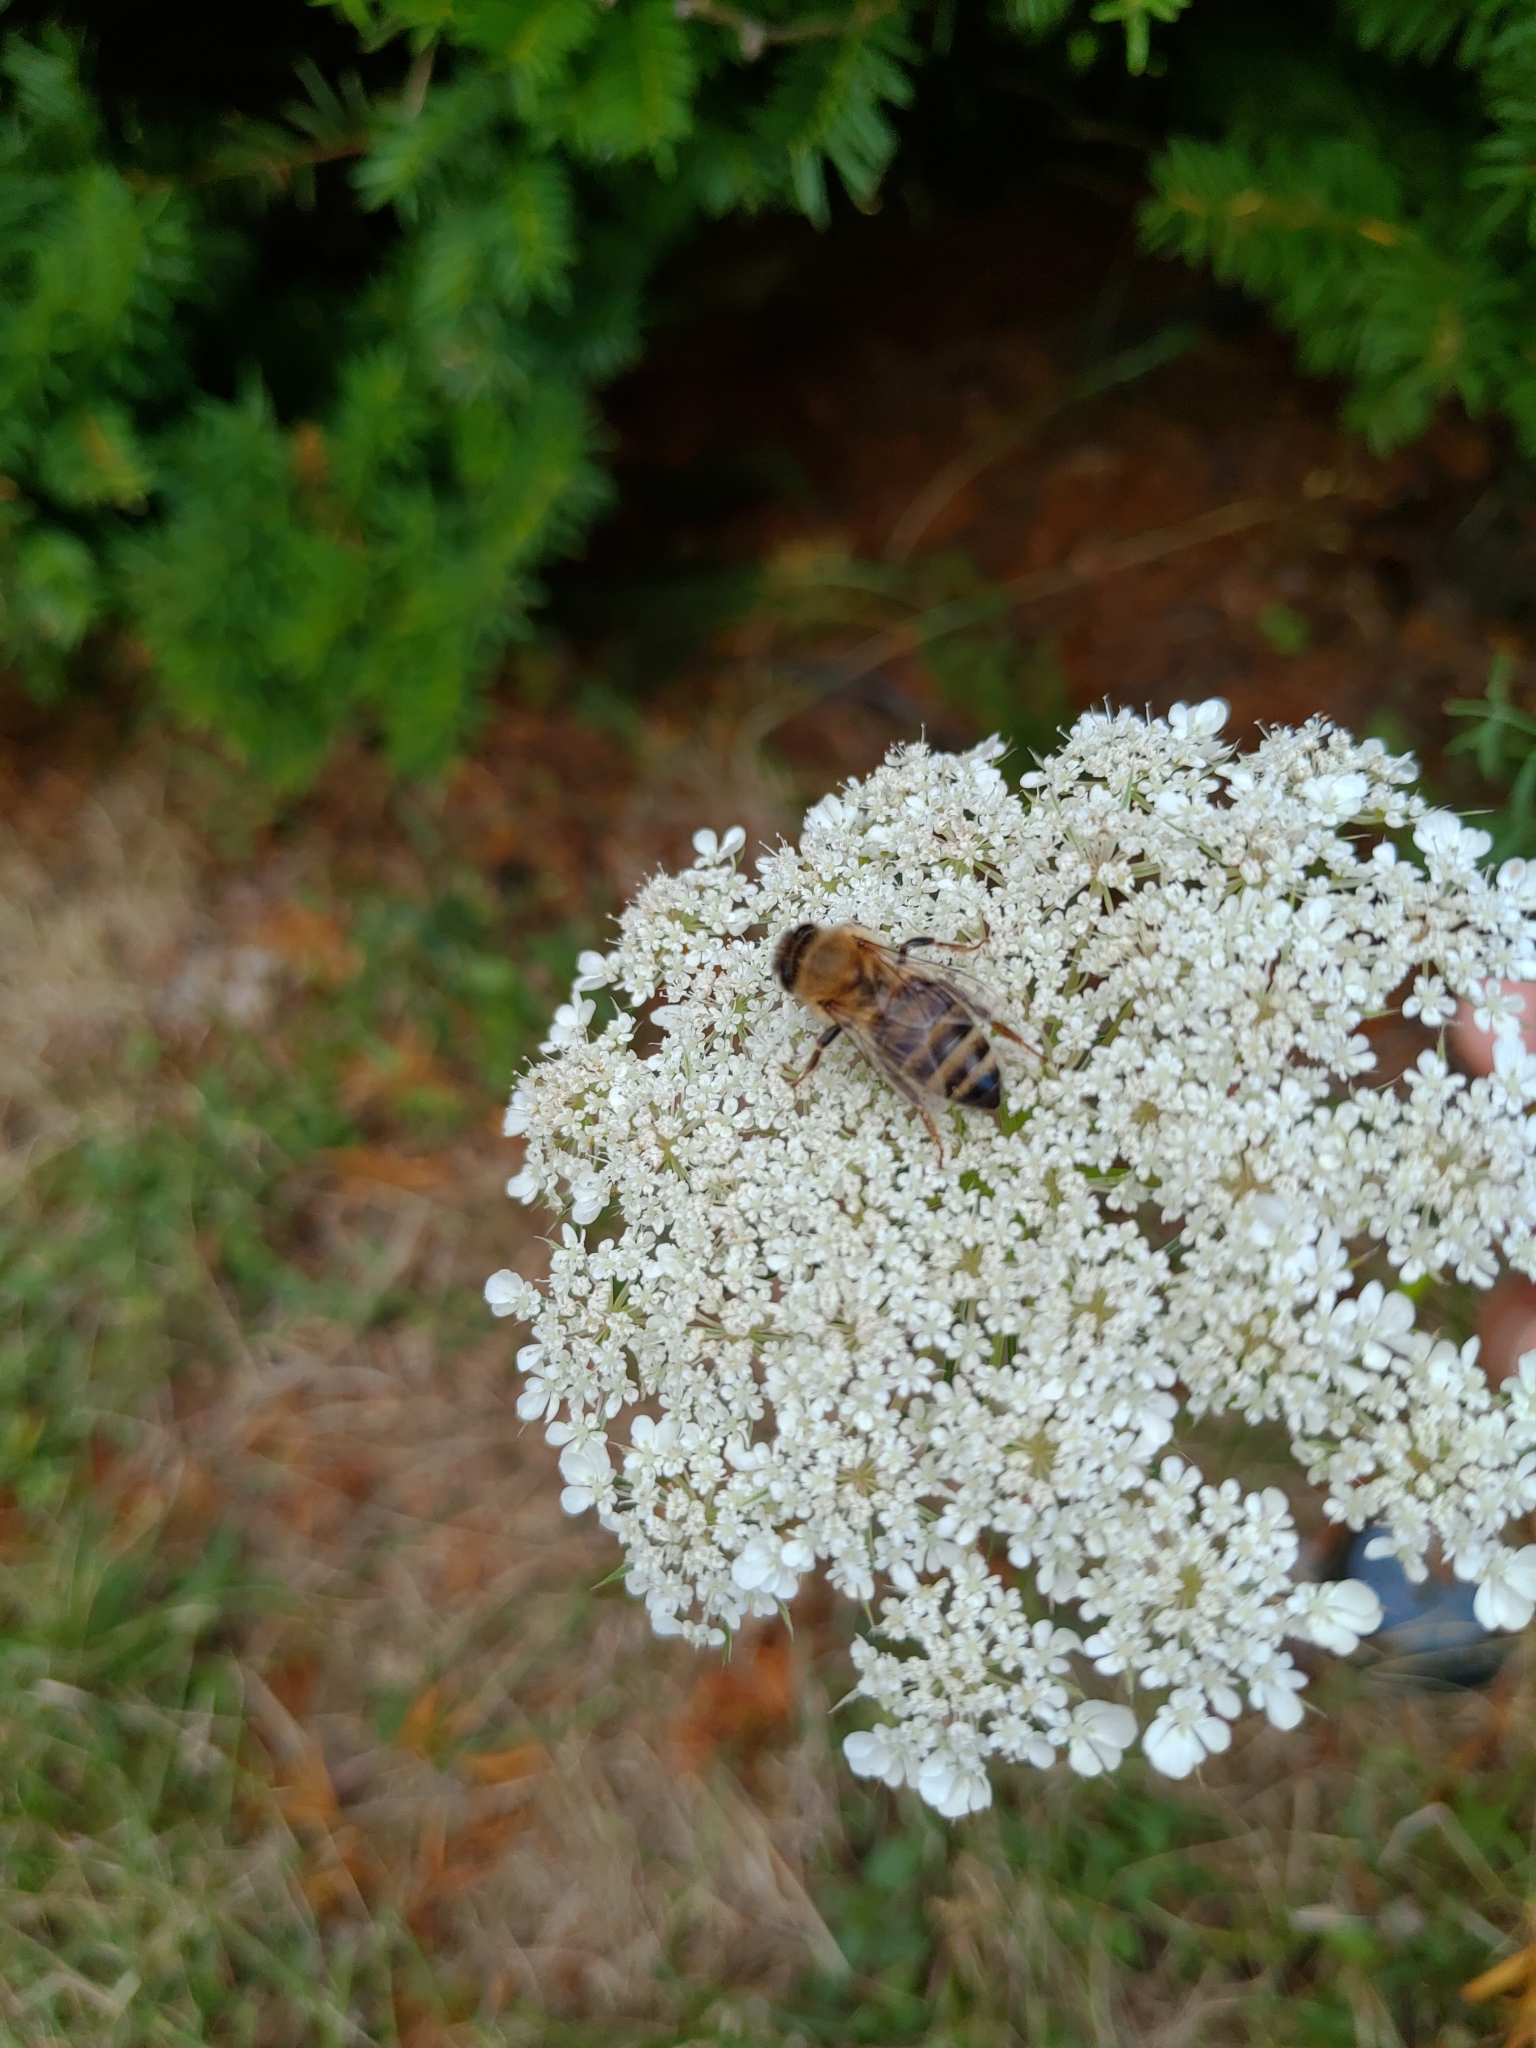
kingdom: Animalia
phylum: Arthropoda
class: Insecta
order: Hymenoptera
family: Apidae
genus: Apis
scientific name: Apis mellifera
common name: Honey bee
